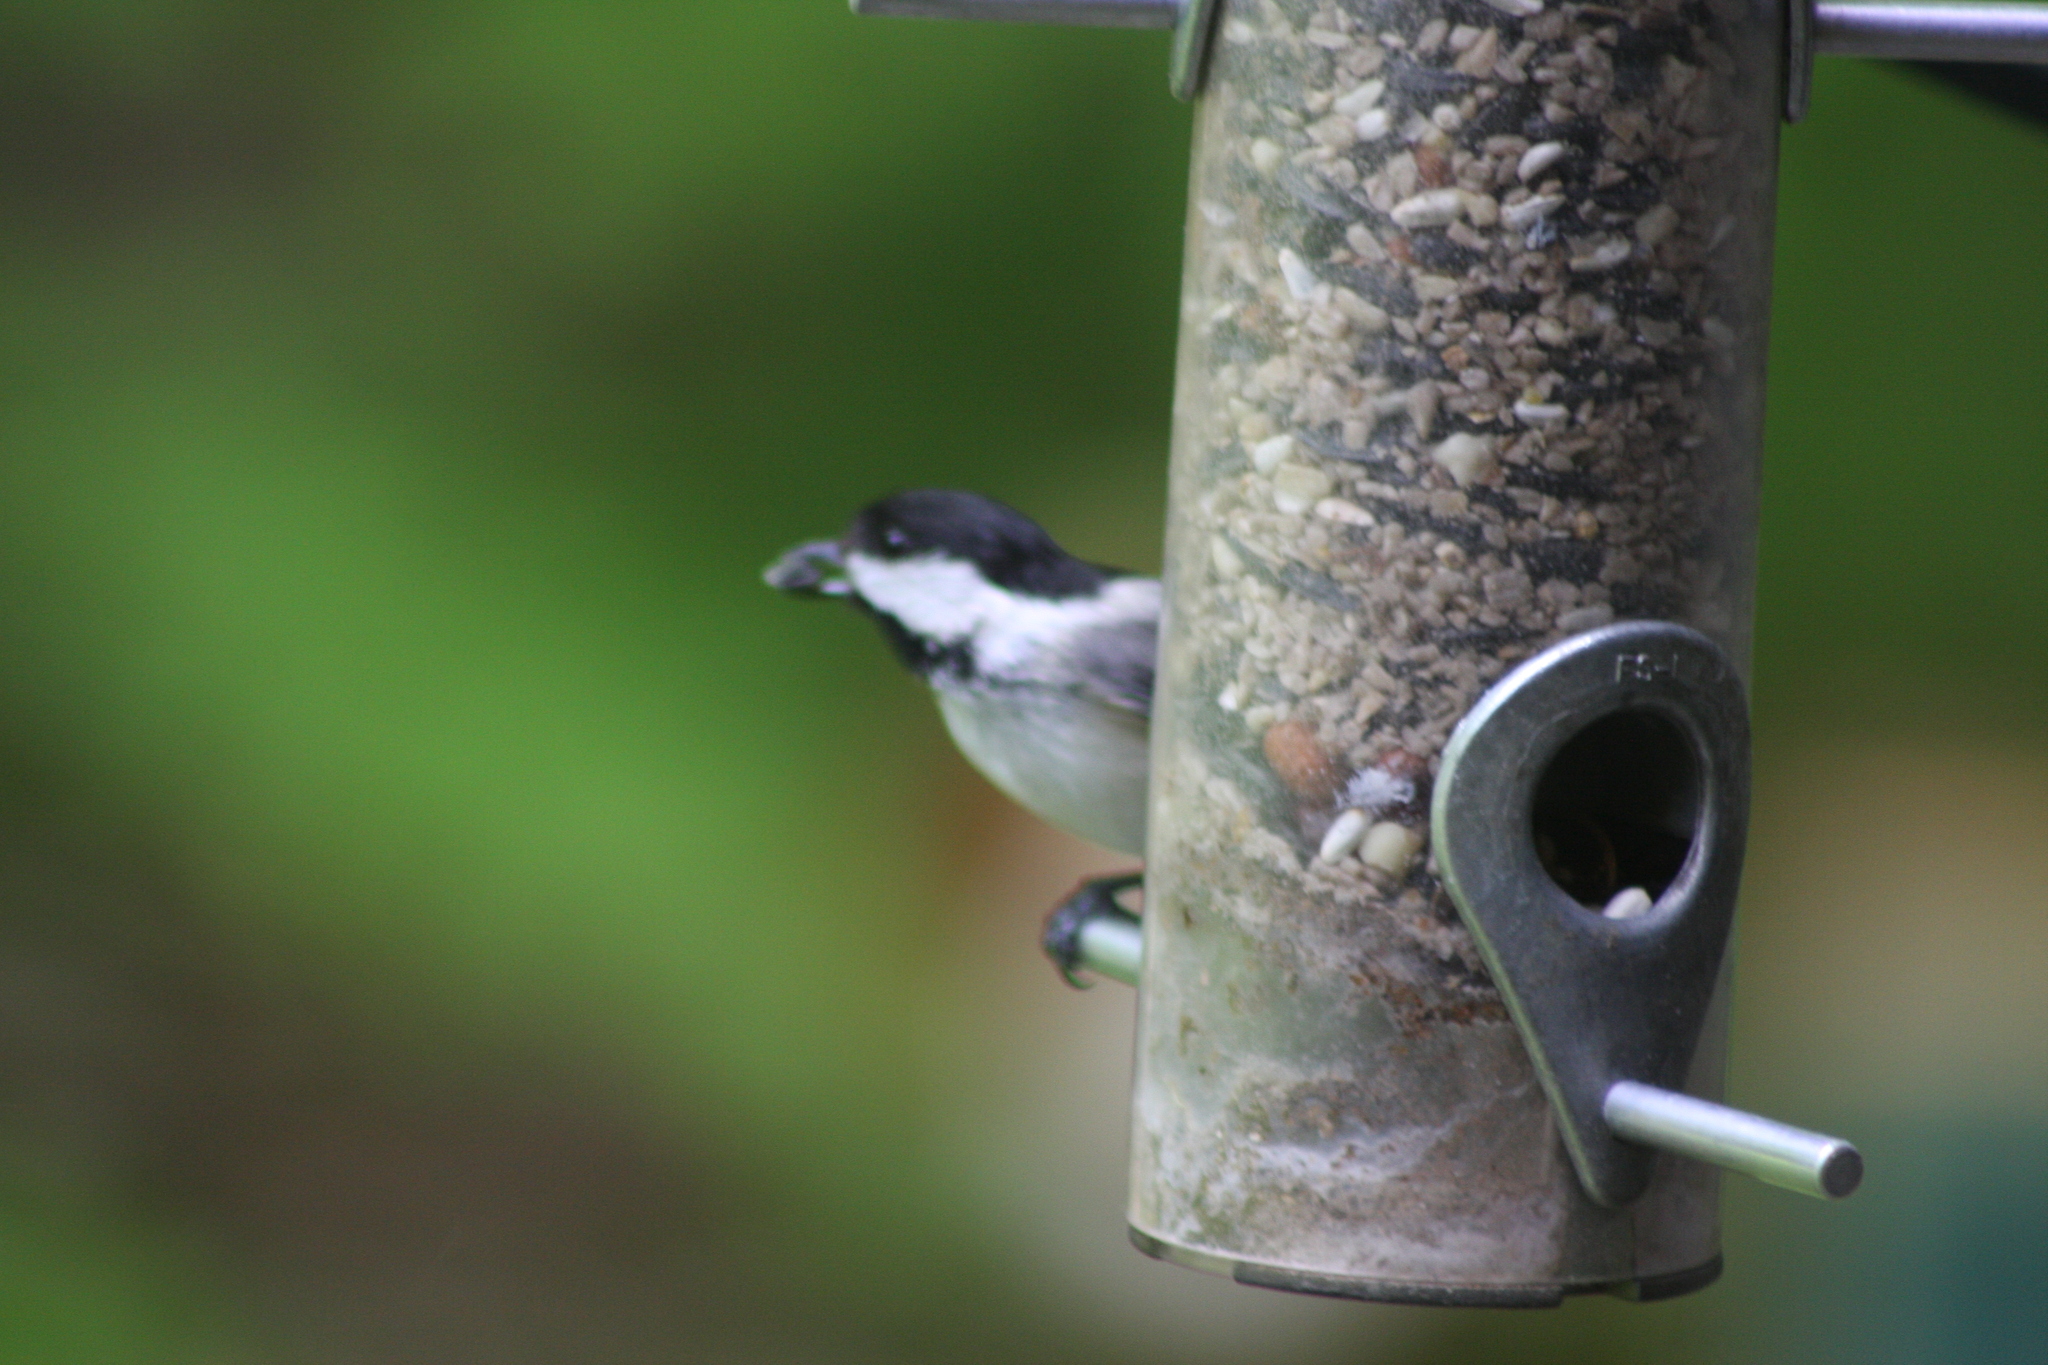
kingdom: Animalia
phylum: Chordata
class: Aves
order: Passeriformes
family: Paridae
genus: Poecile
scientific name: Poecile atricapillus
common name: Black-capped chickadee
